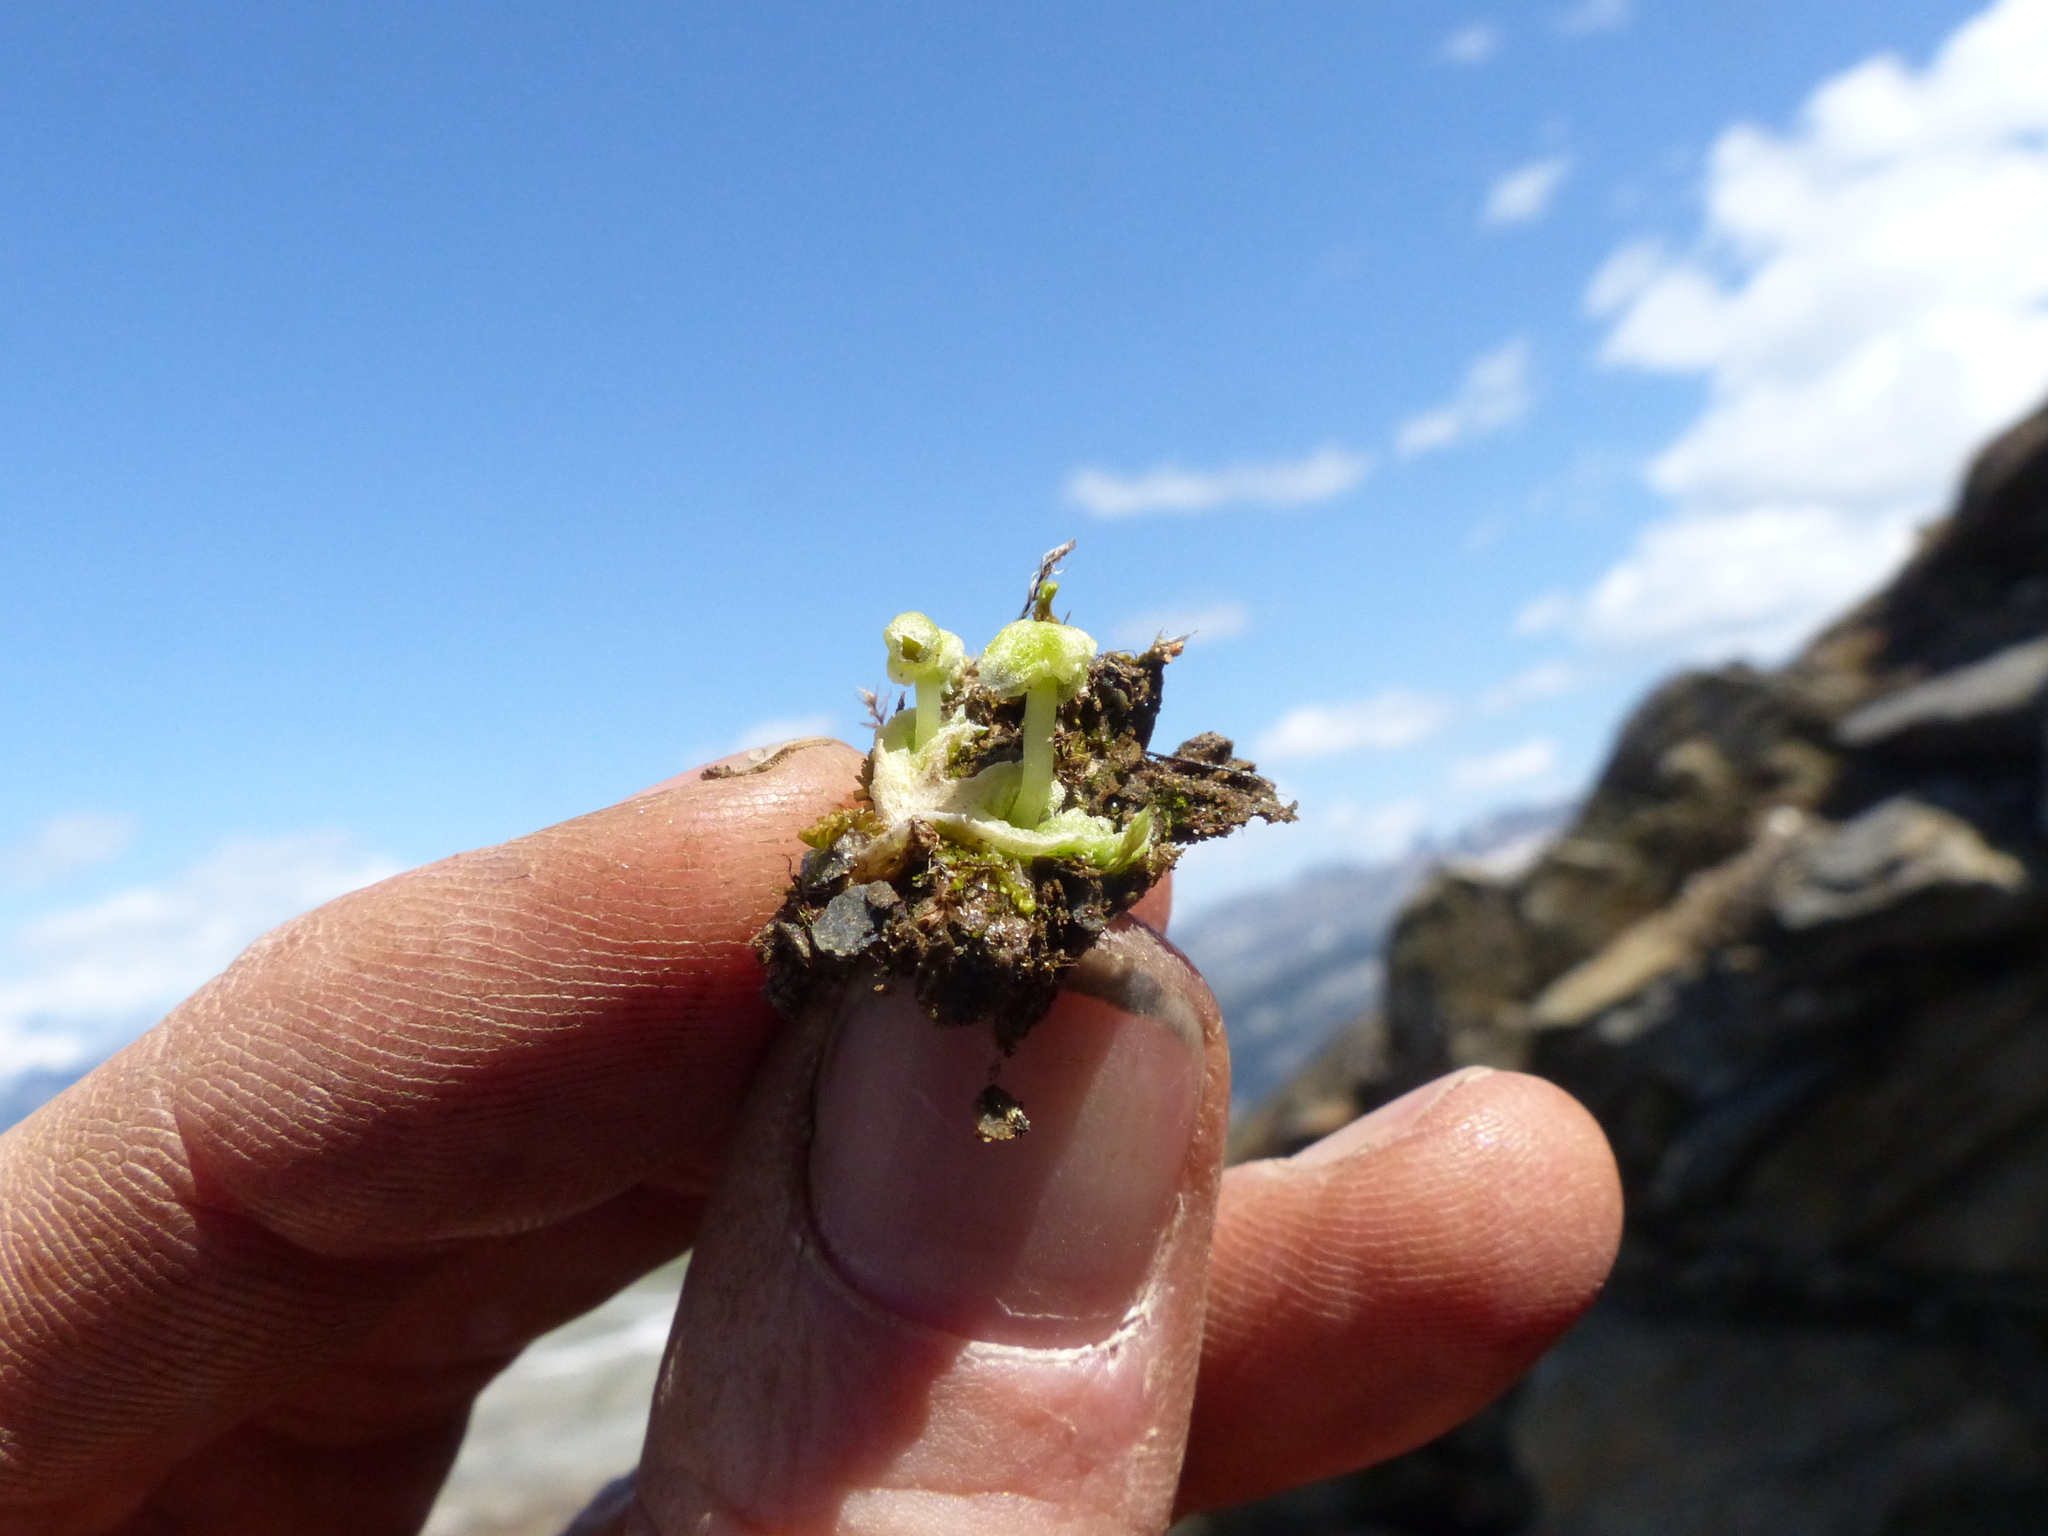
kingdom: Plantae
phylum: Marchantiophyta
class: Marchantiopsida
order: Marchantiales
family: Cleveaceae
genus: Sauteria
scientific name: Sauteria alpina
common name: Snow lungwort
